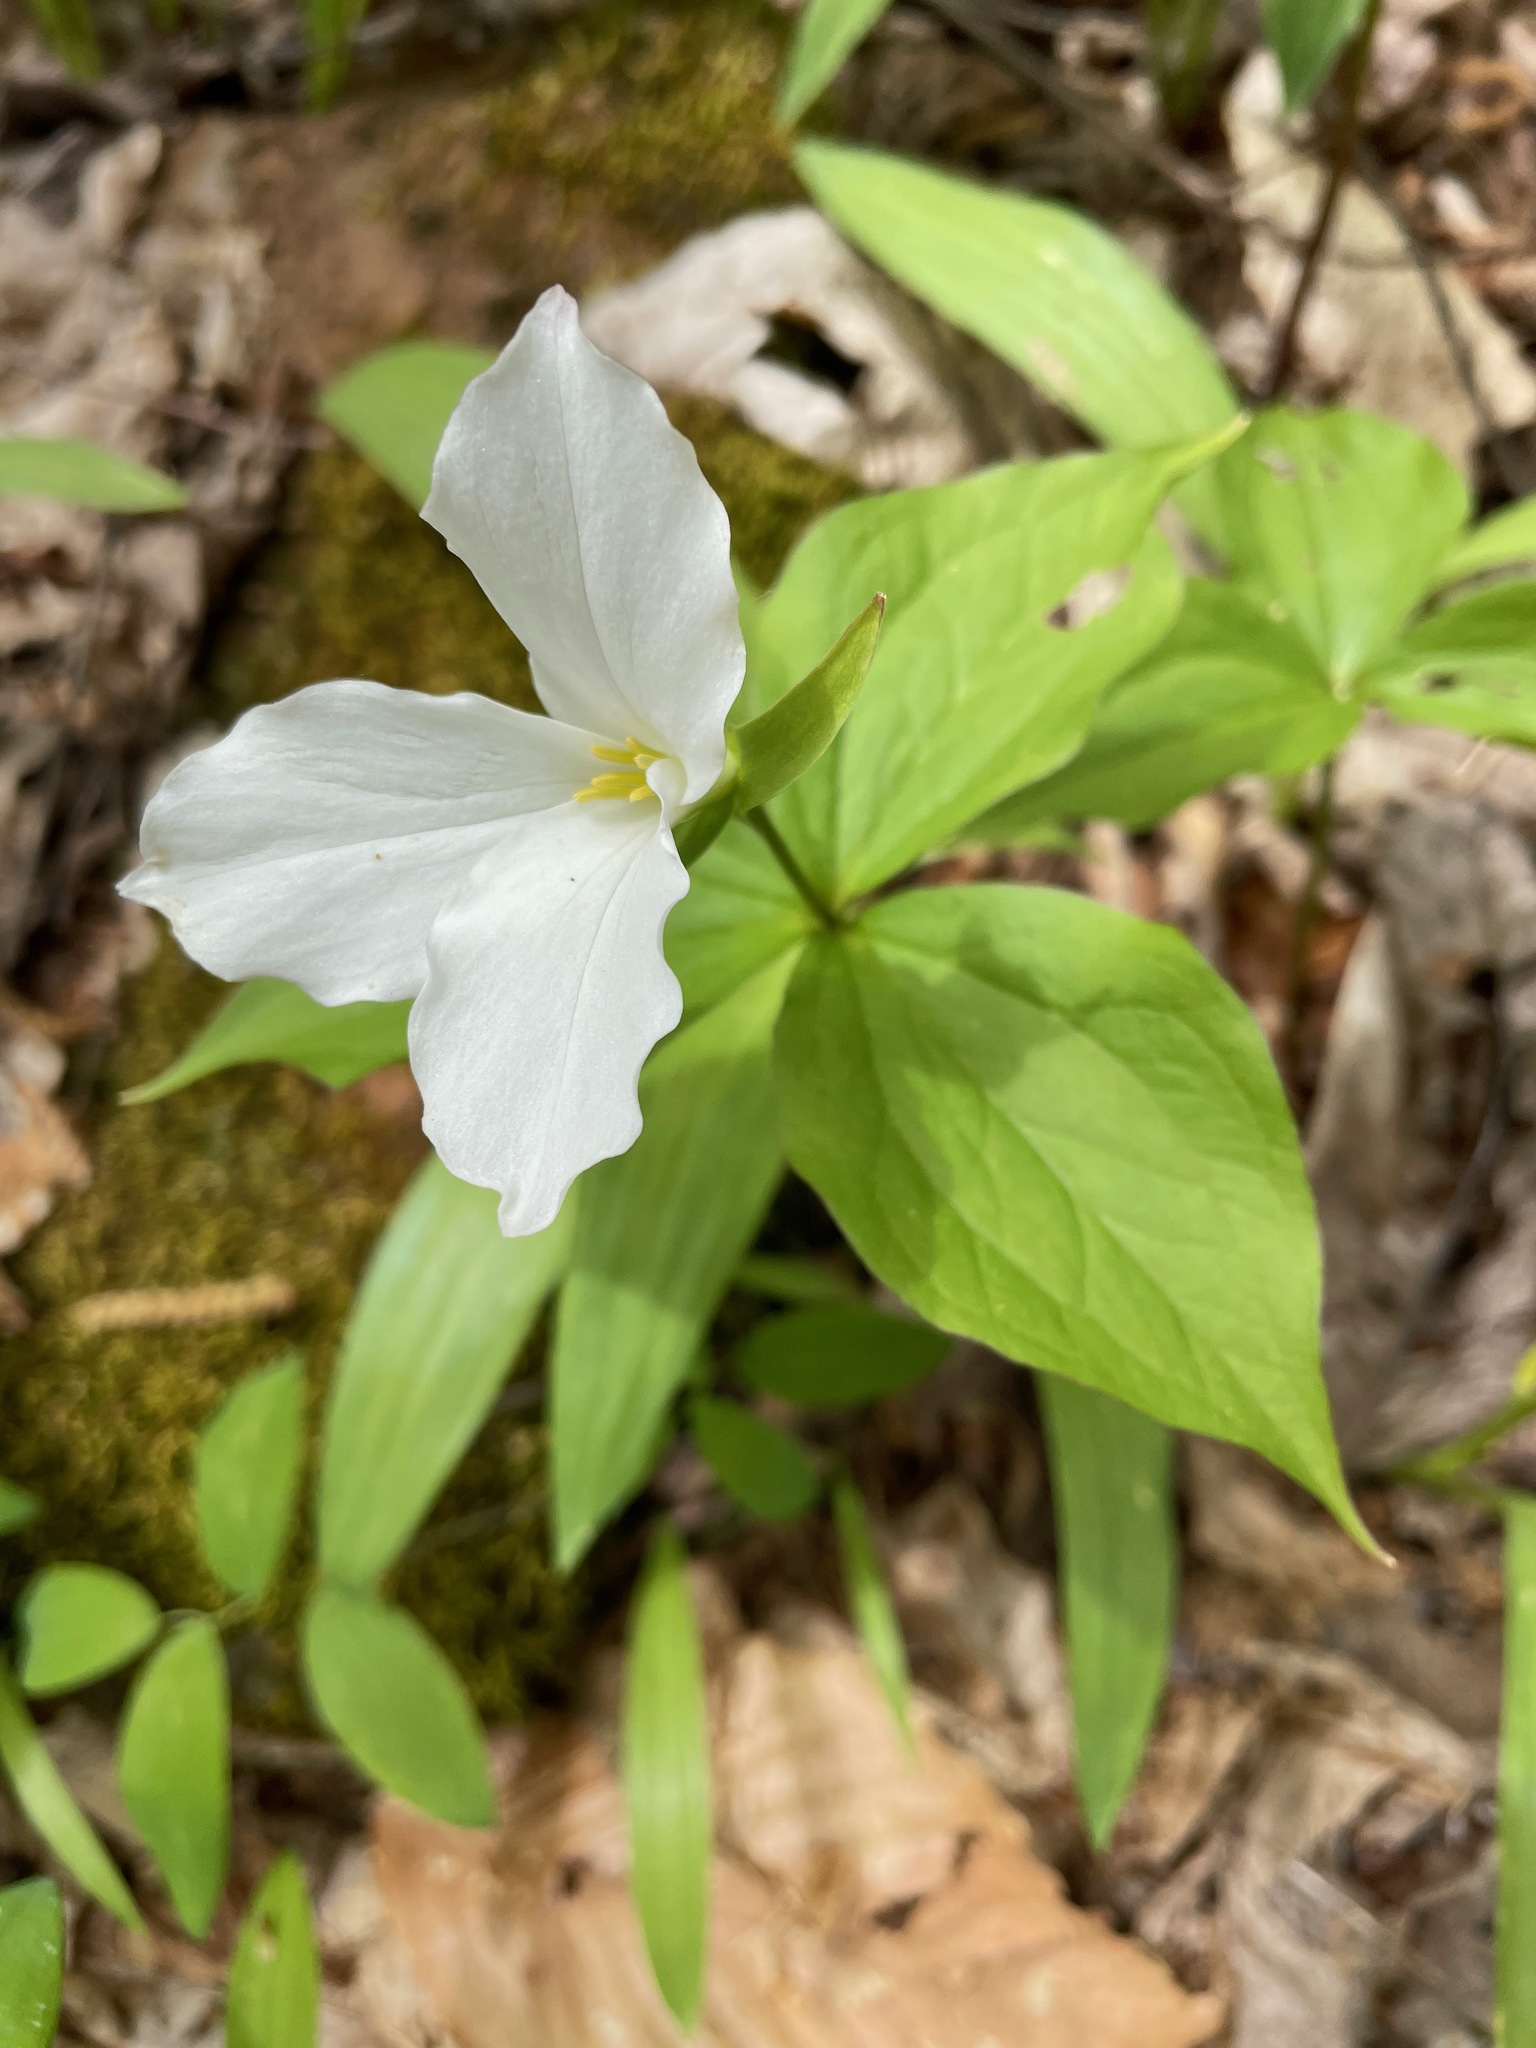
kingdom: Plantae
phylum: Tracheophyta
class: Liliopsida
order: Liliales
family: Melanthiaceae
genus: Trillium
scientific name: Trillium grandiflorum
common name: Great white trillium
